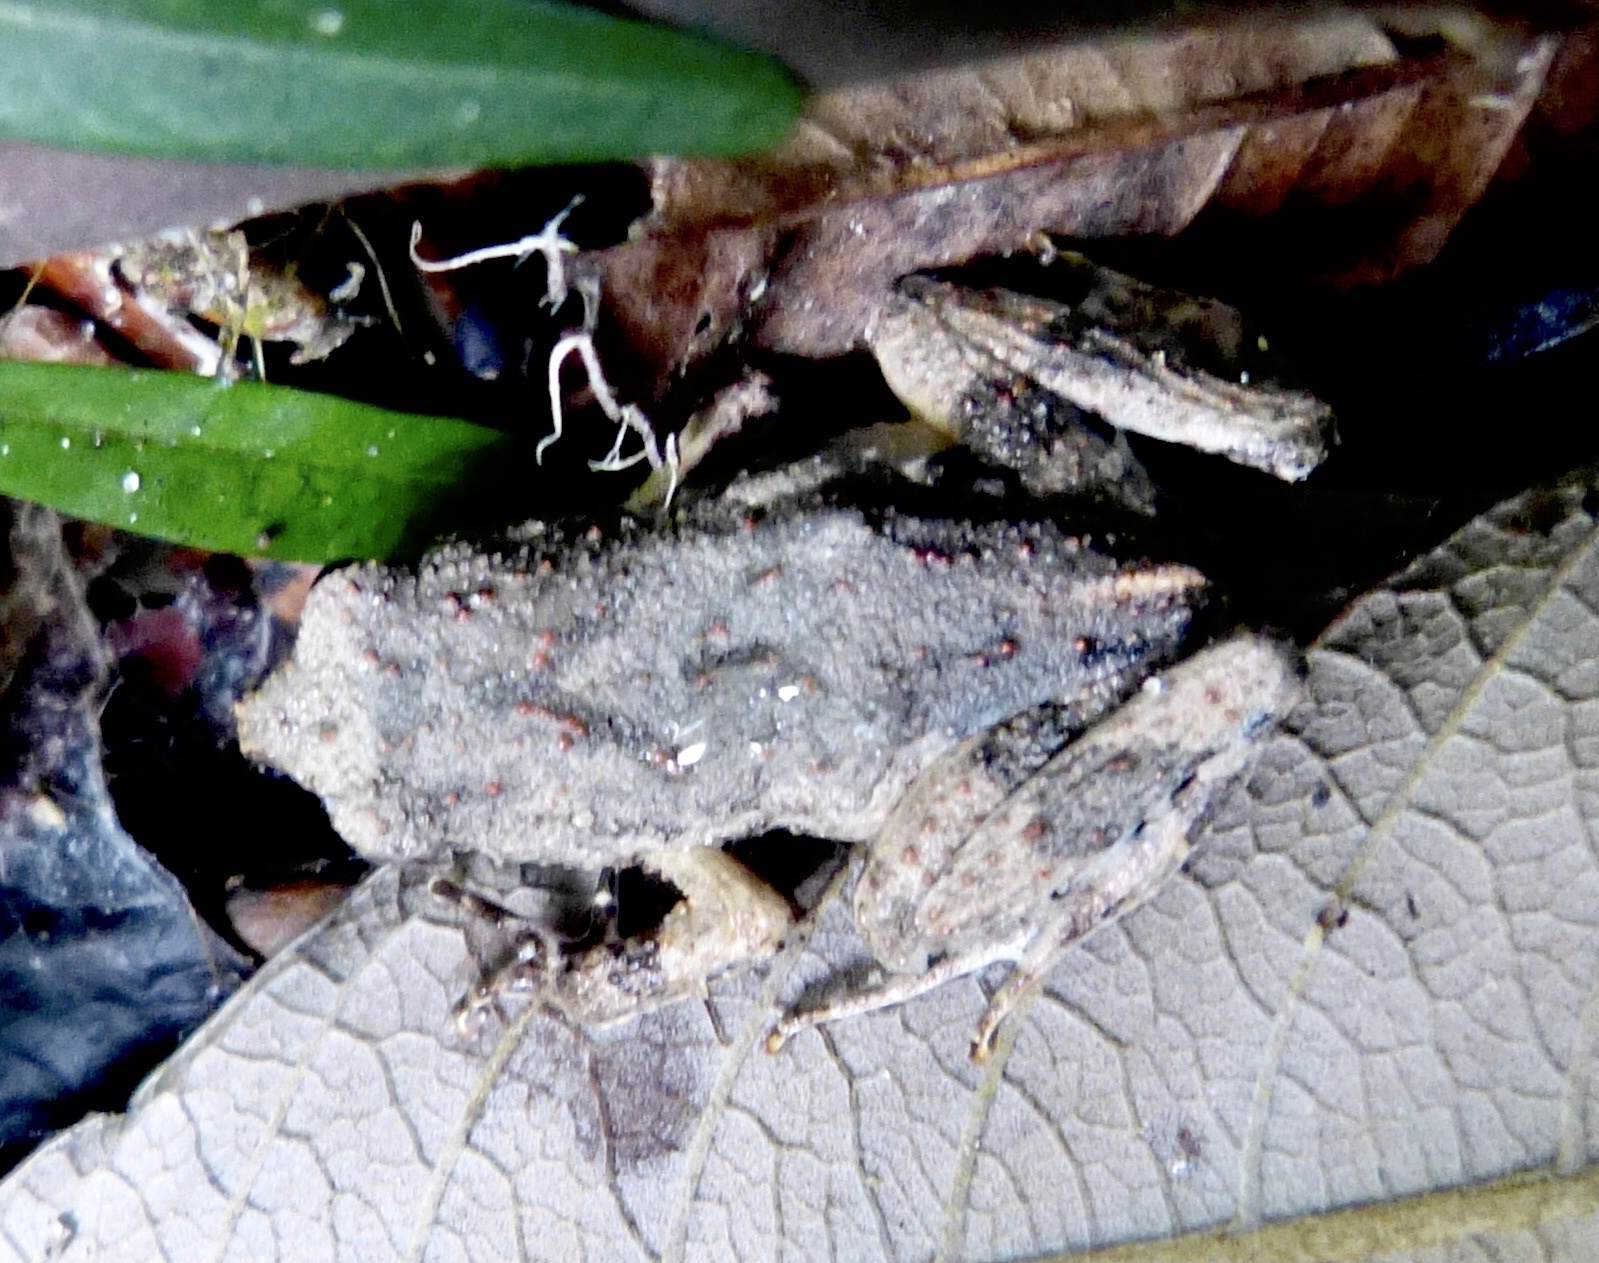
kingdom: Animalia
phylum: Chordata
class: Amphibia
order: Anura
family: Leptodactylidae
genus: Engystomops
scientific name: Engystomops petersi
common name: Peters’ dwarf frog
